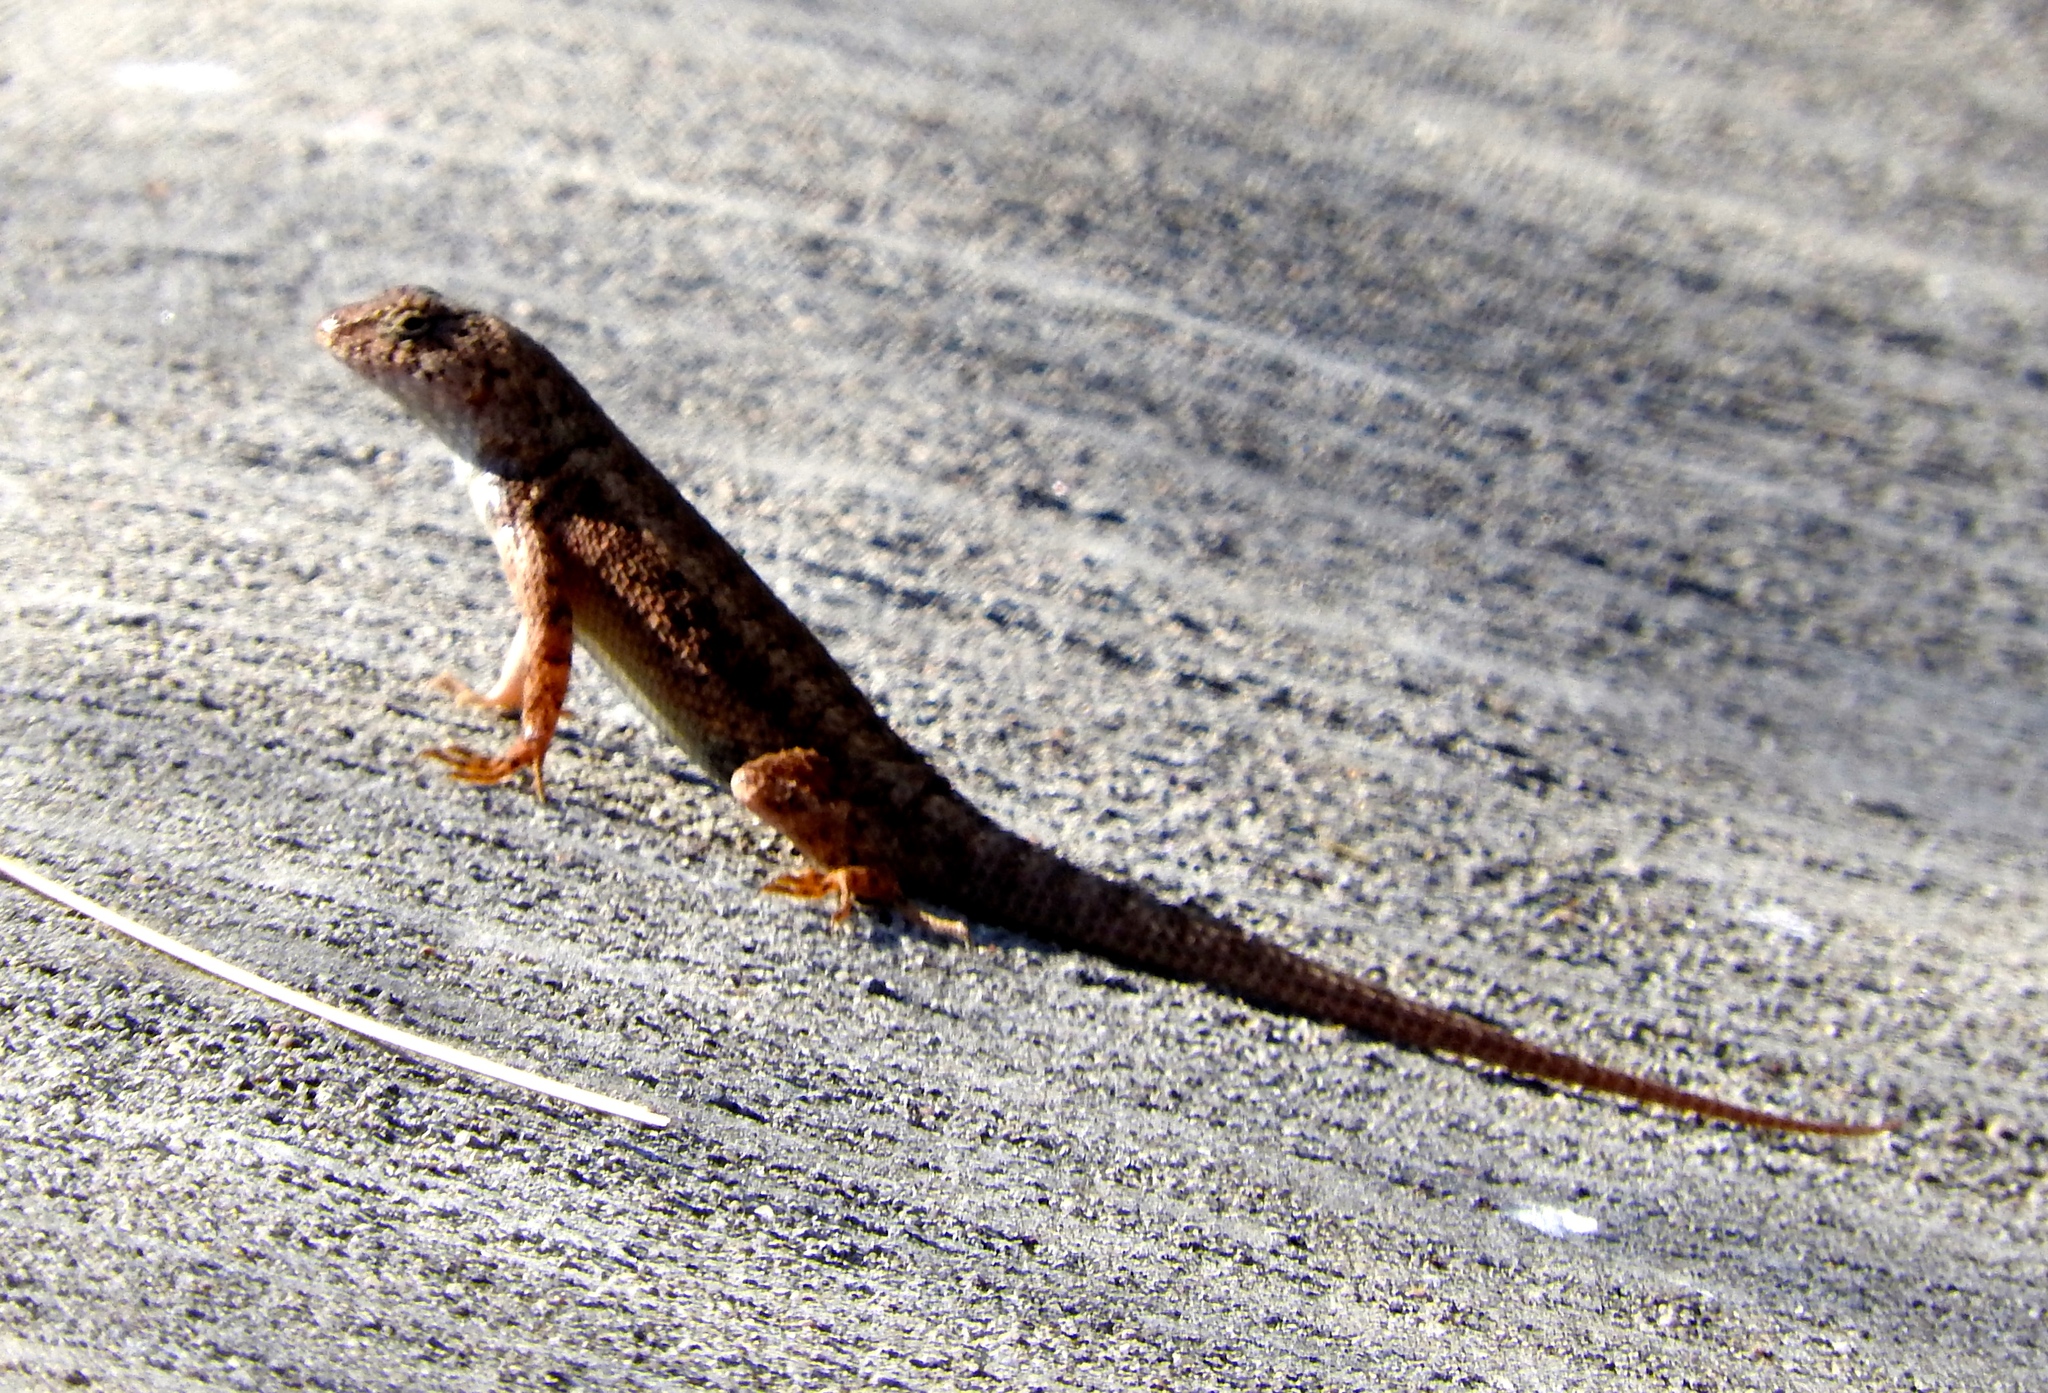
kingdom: Animalia
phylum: Chordata
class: Squamata
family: Phrynosomatidae
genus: Sceloporus
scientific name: Sceloporus nelsoni
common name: Nelson's spiny lizard
